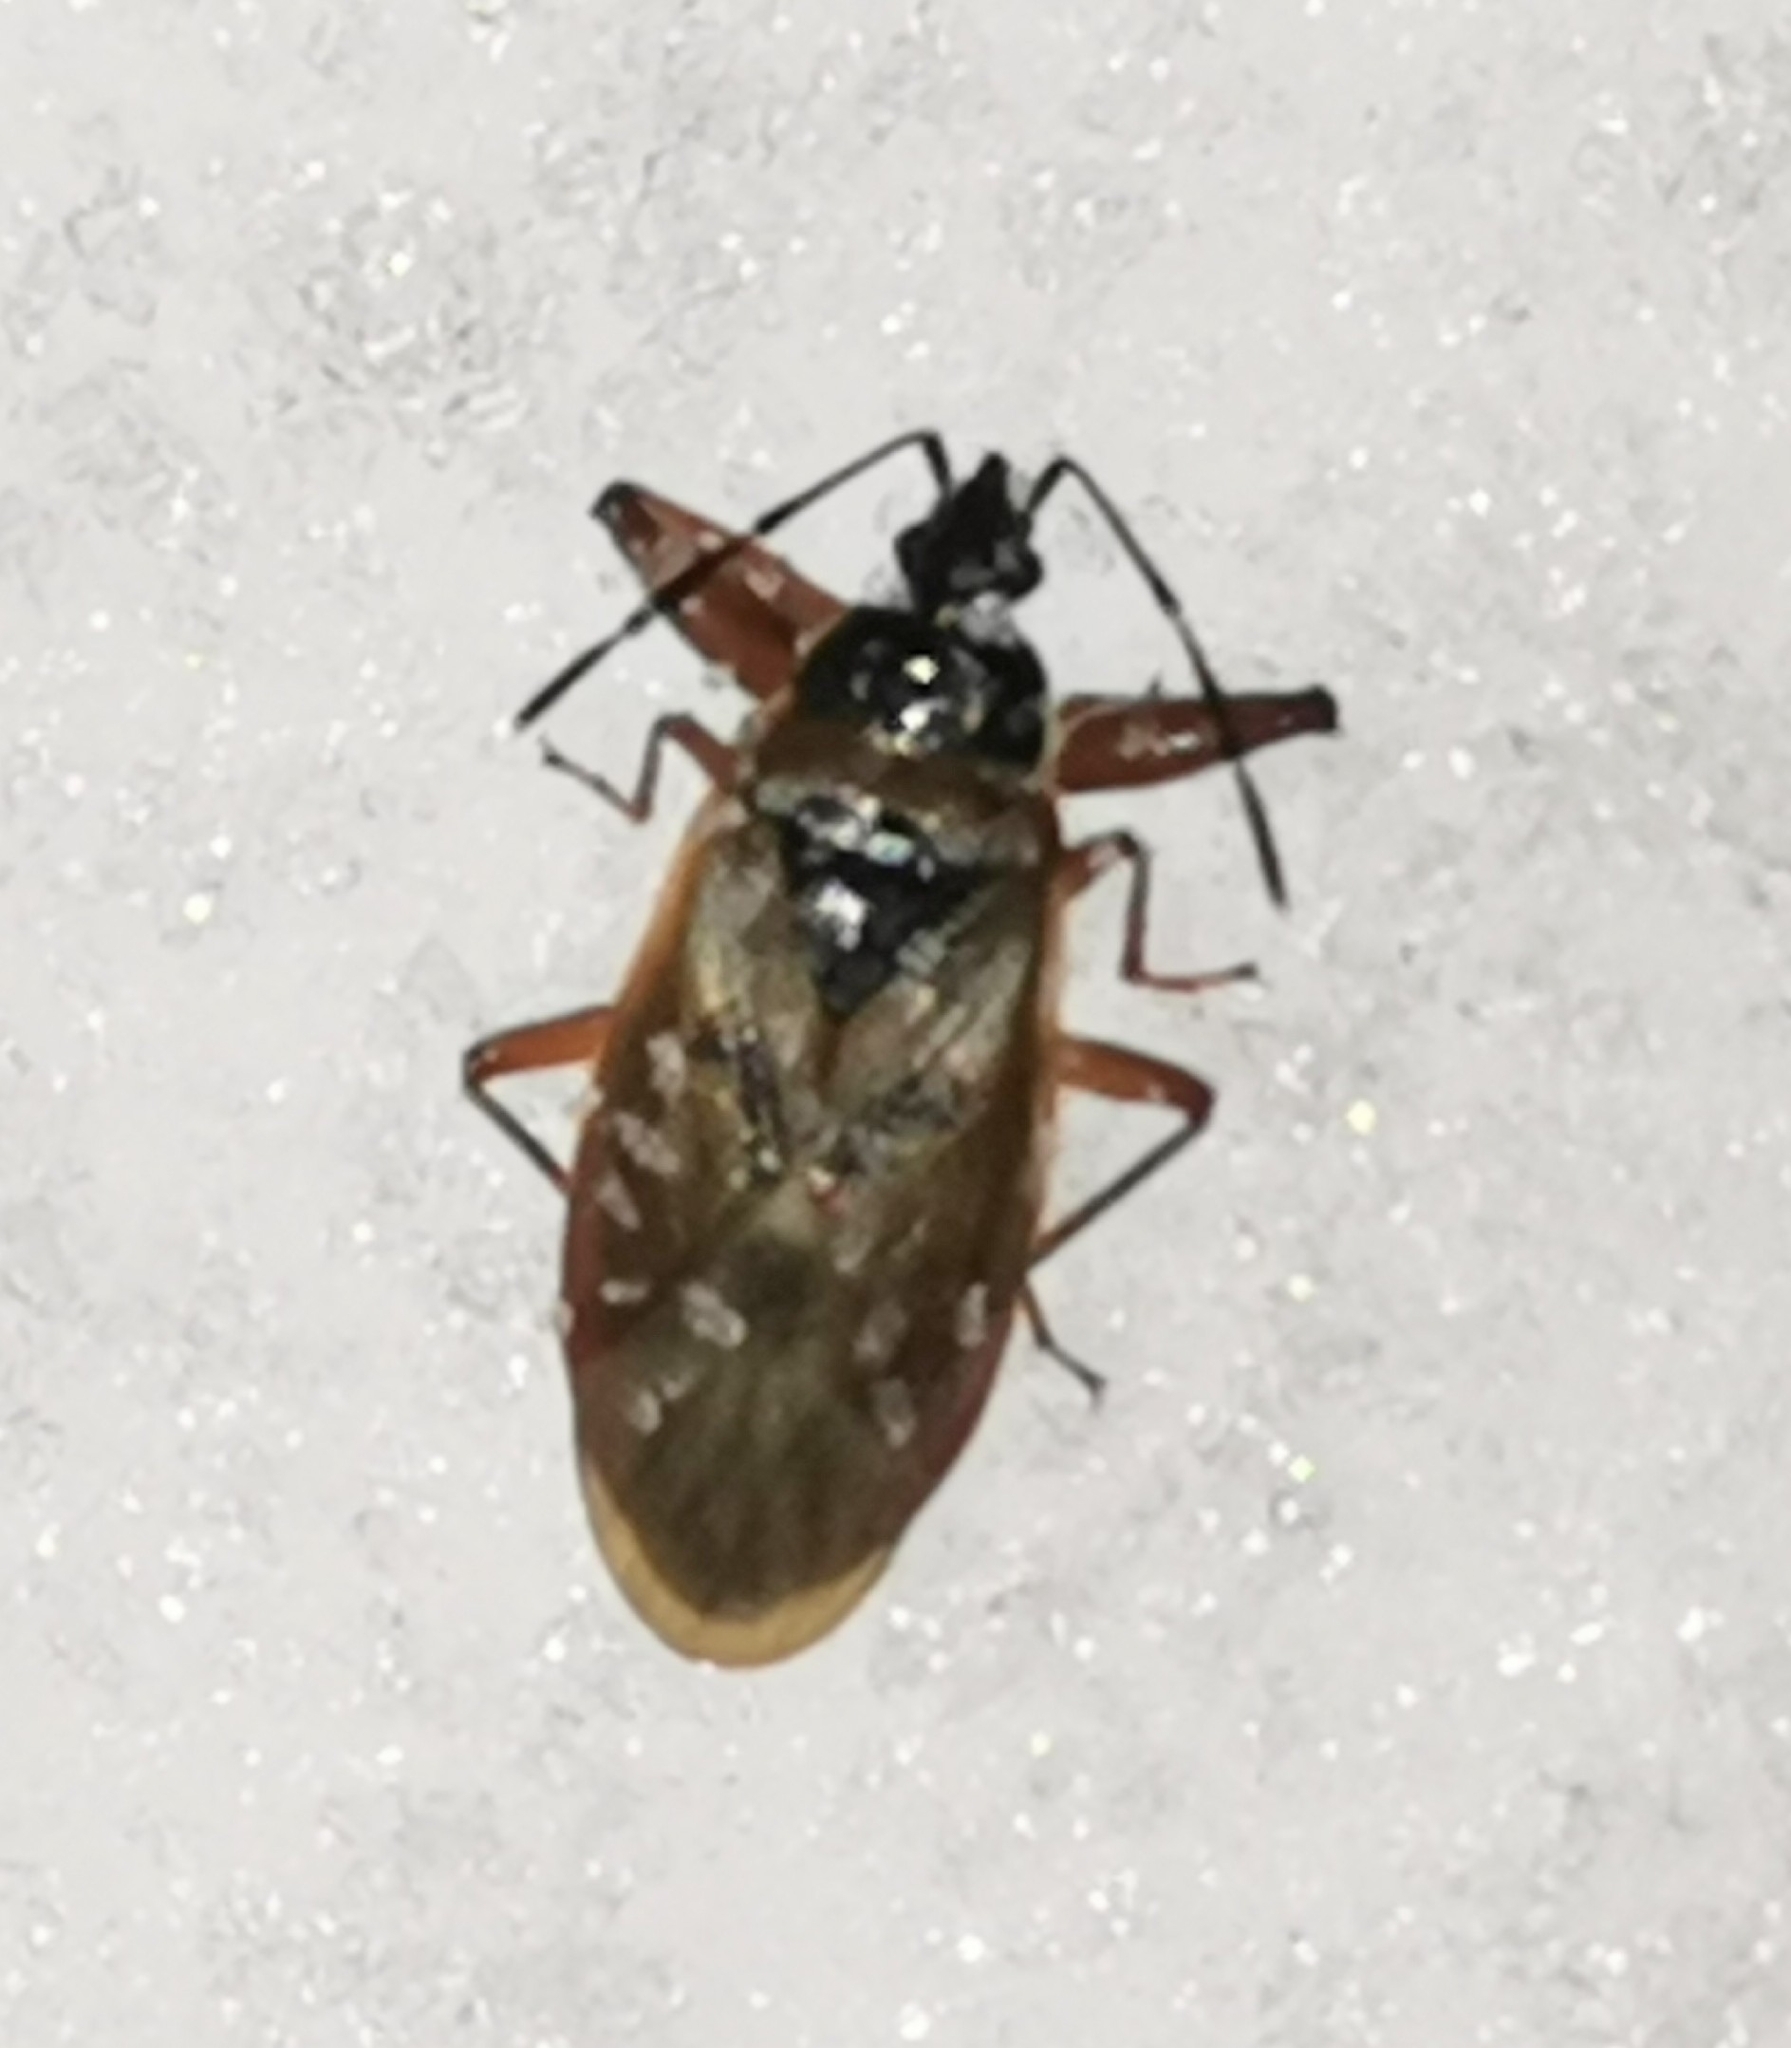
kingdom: Animalia
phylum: Arthropoda
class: Insecta
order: Hemiptera
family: Rhyparochromidae
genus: Gastrodes
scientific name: Gastrodes abietum
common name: Spruce cone bug
